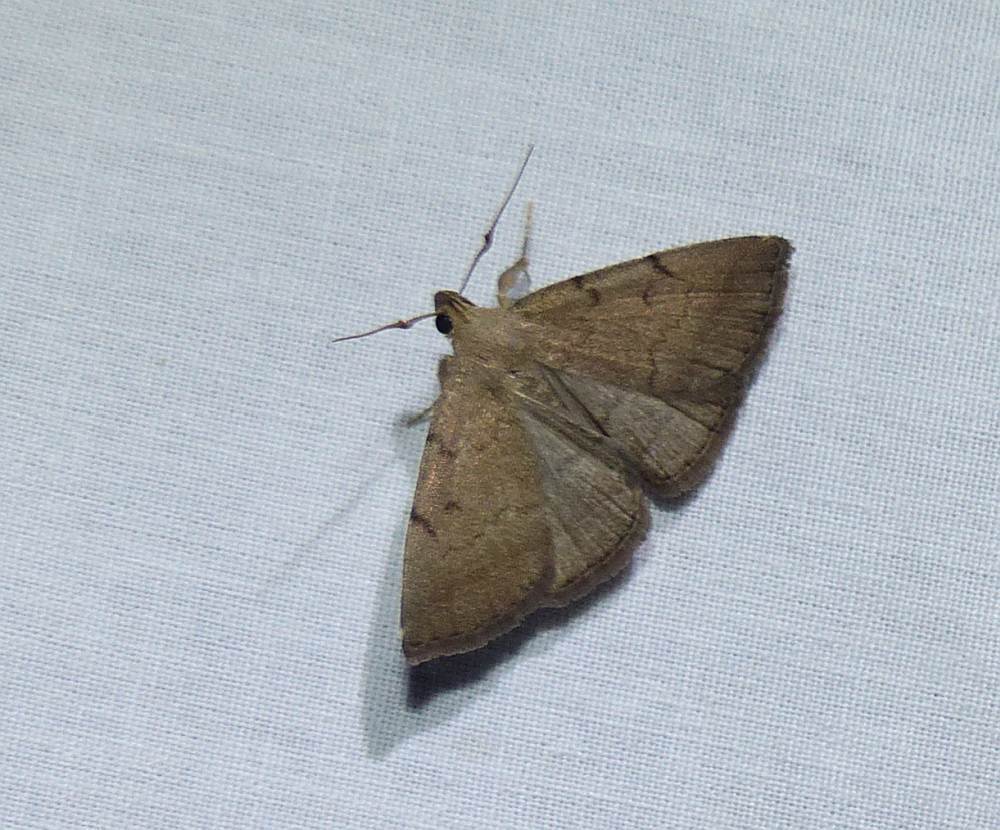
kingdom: Animalia
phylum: Arthropoda
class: Insecta
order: Lepidoptera
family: Erebidae
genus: Zanclognatha
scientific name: Zanclognatha protumnusalis
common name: Complex fan-foot
